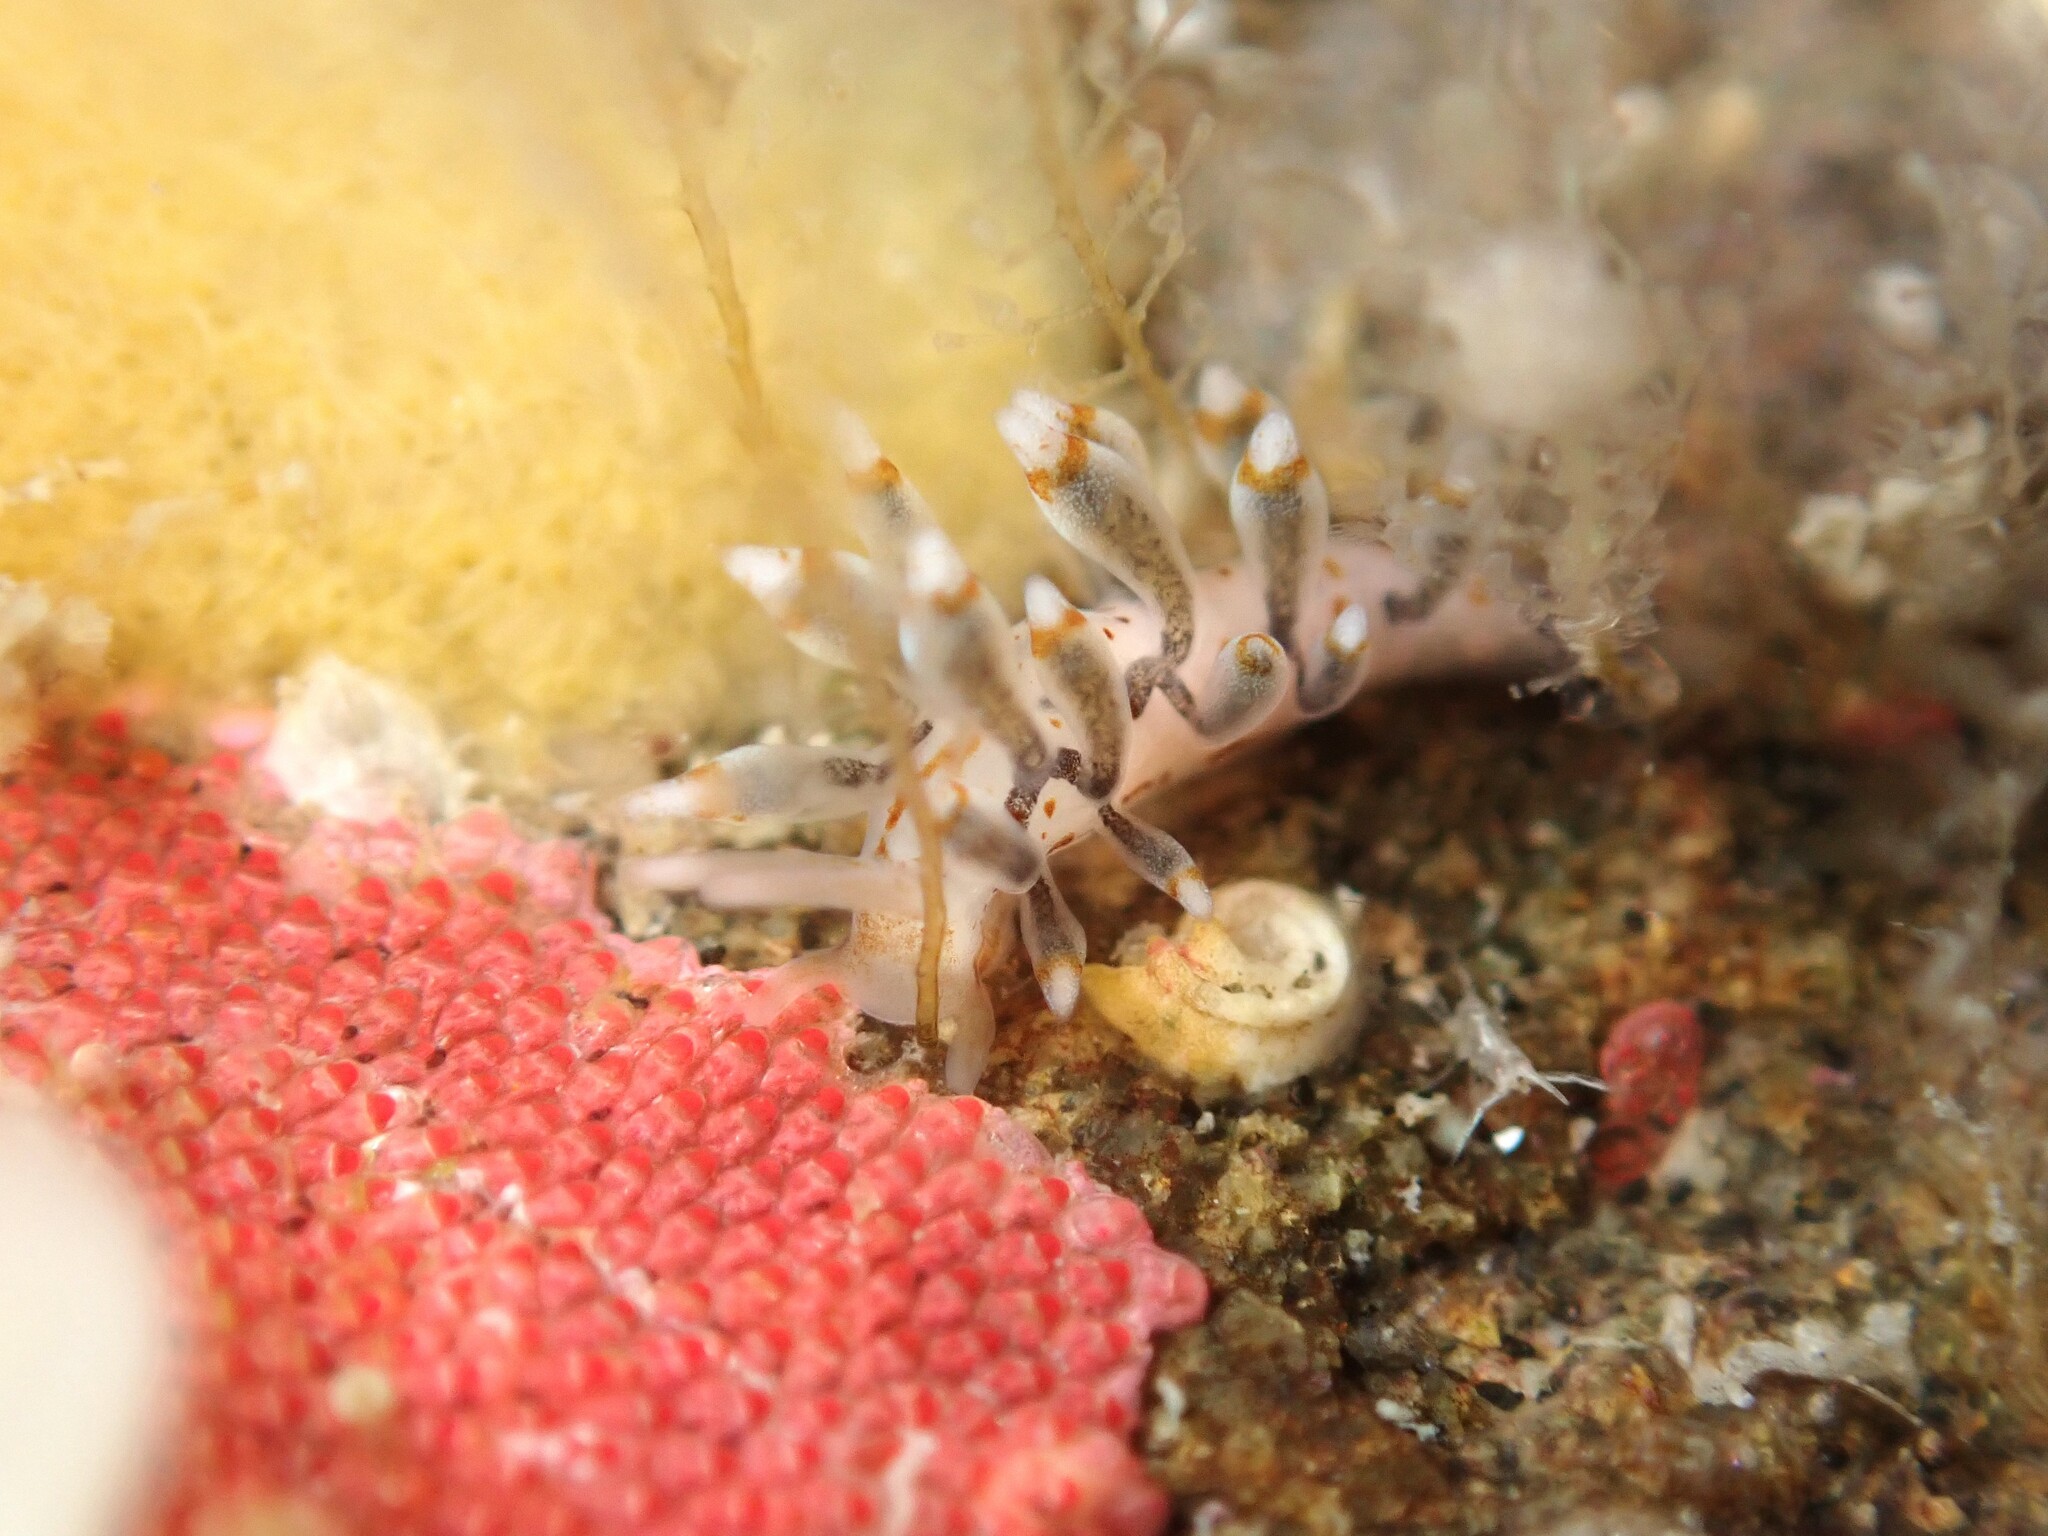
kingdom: Animalia
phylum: Mollusca
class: Gastropoda
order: Nudibranchia
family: Eubranchidae
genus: Eubranchus
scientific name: Eubranchus agrius
